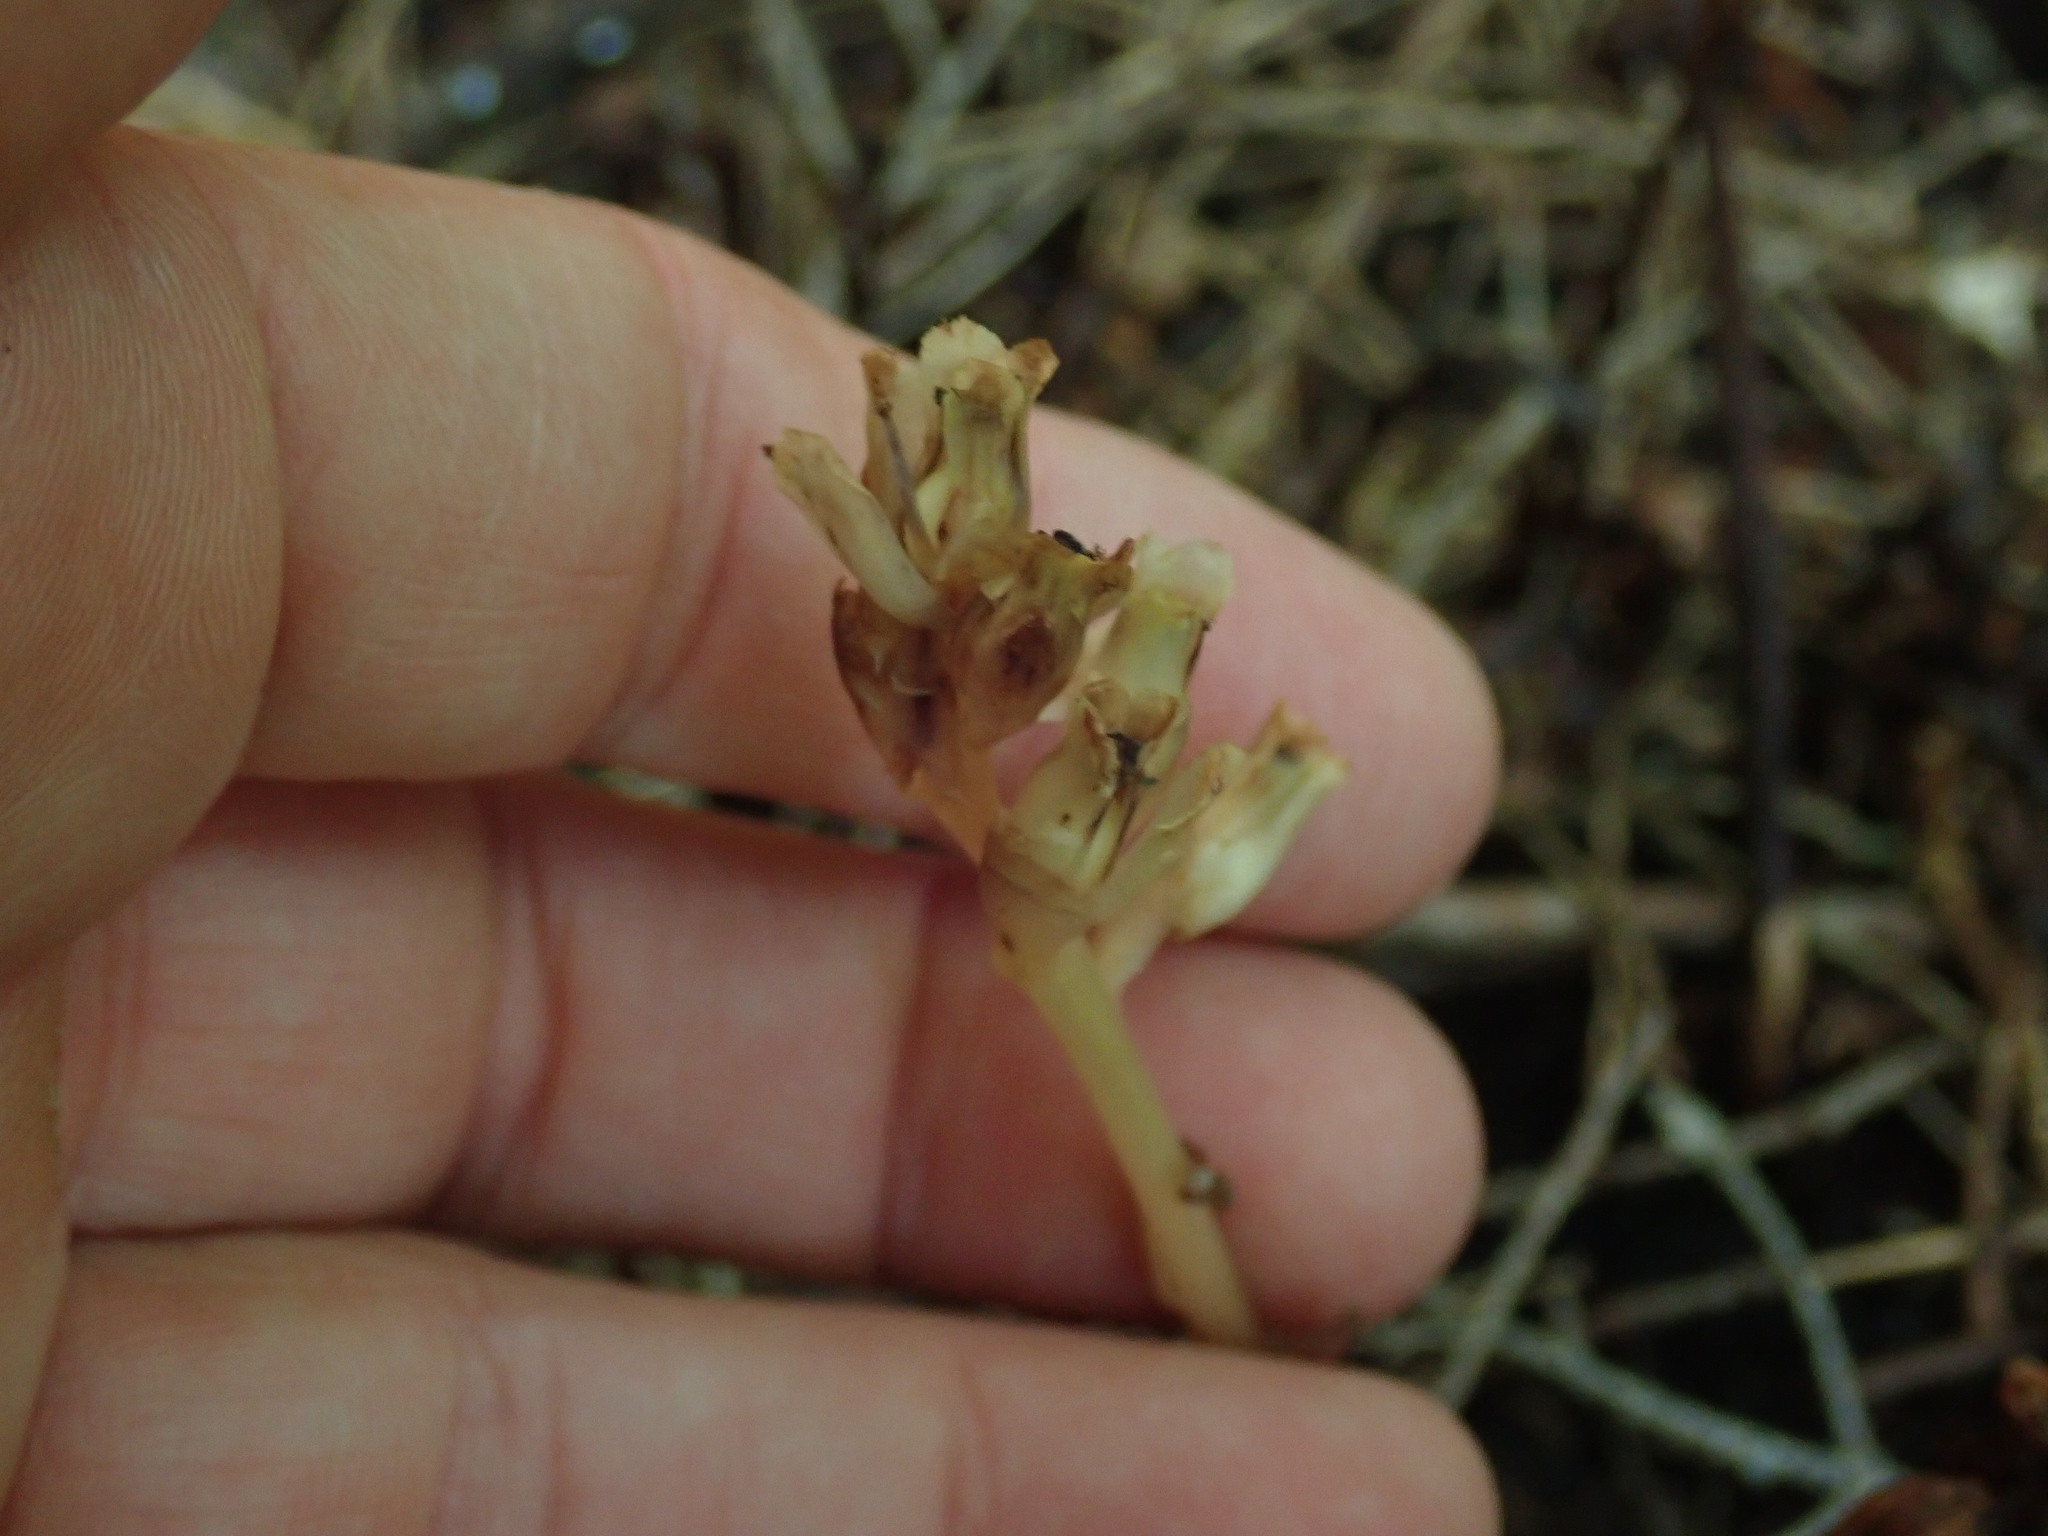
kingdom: Plantae
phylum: Tracheophyta
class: Magnoliopsida
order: Ericales
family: Ericaceae
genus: Hypopitys
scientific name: Hypopitys monotropa
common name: Yellow bird's-nest
